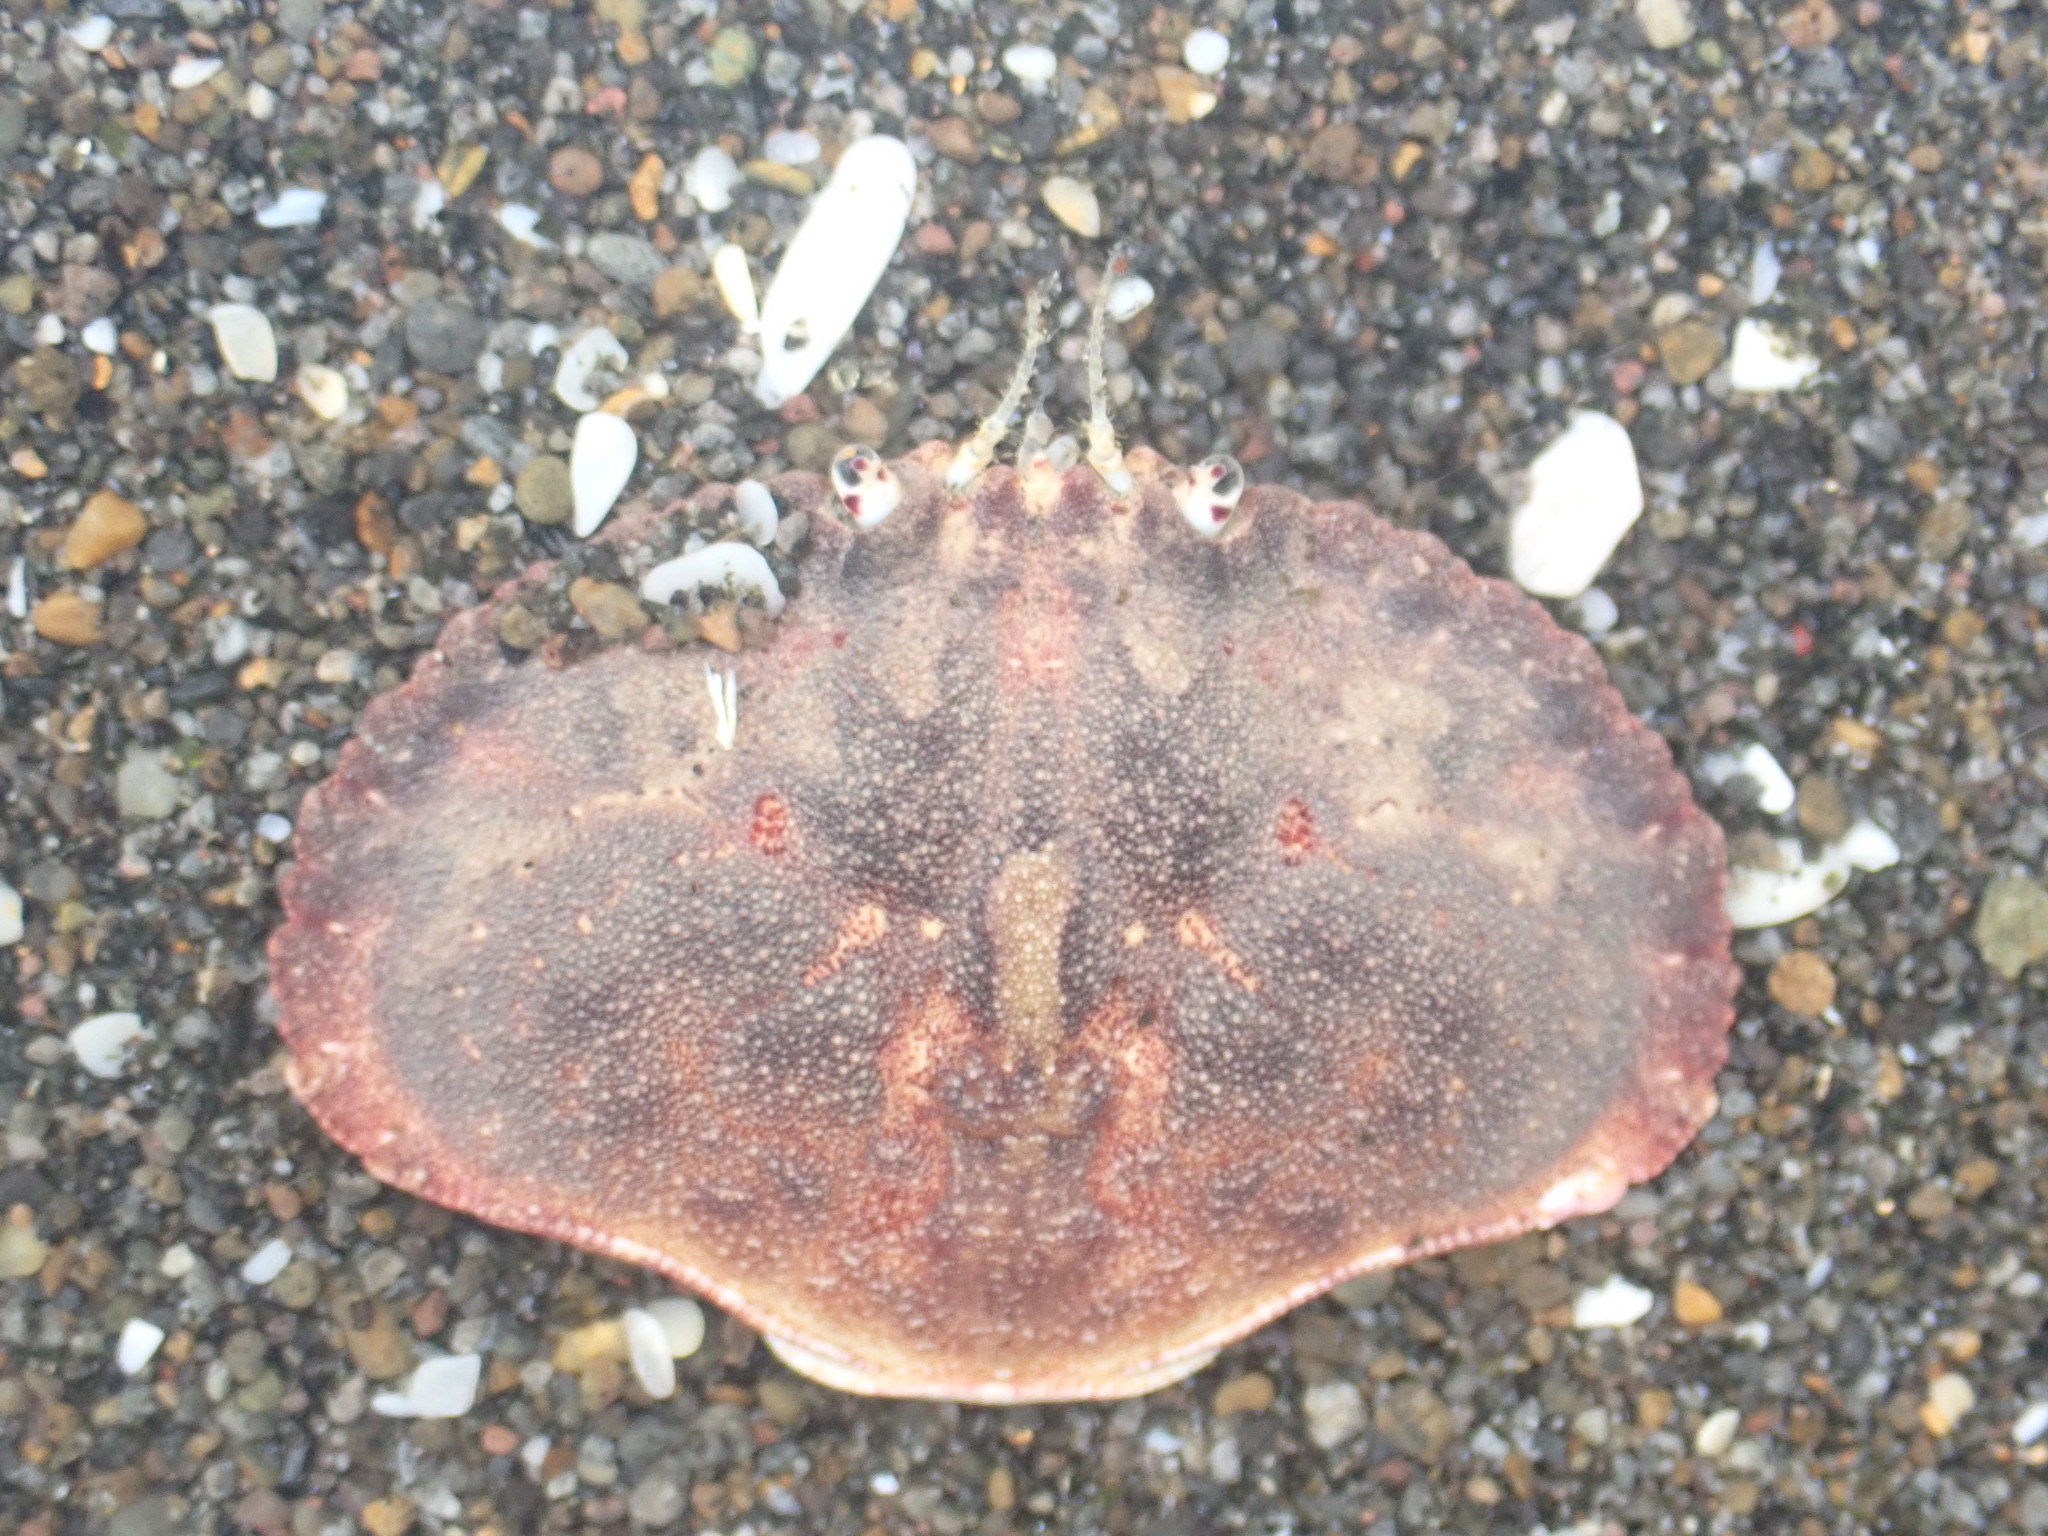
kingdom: Animalia
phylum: Arthropoda
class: Malacostraca
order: Decapoda
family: Cancridae
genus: Metacarcinus
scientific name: Metacarcinus novaezelandiae
